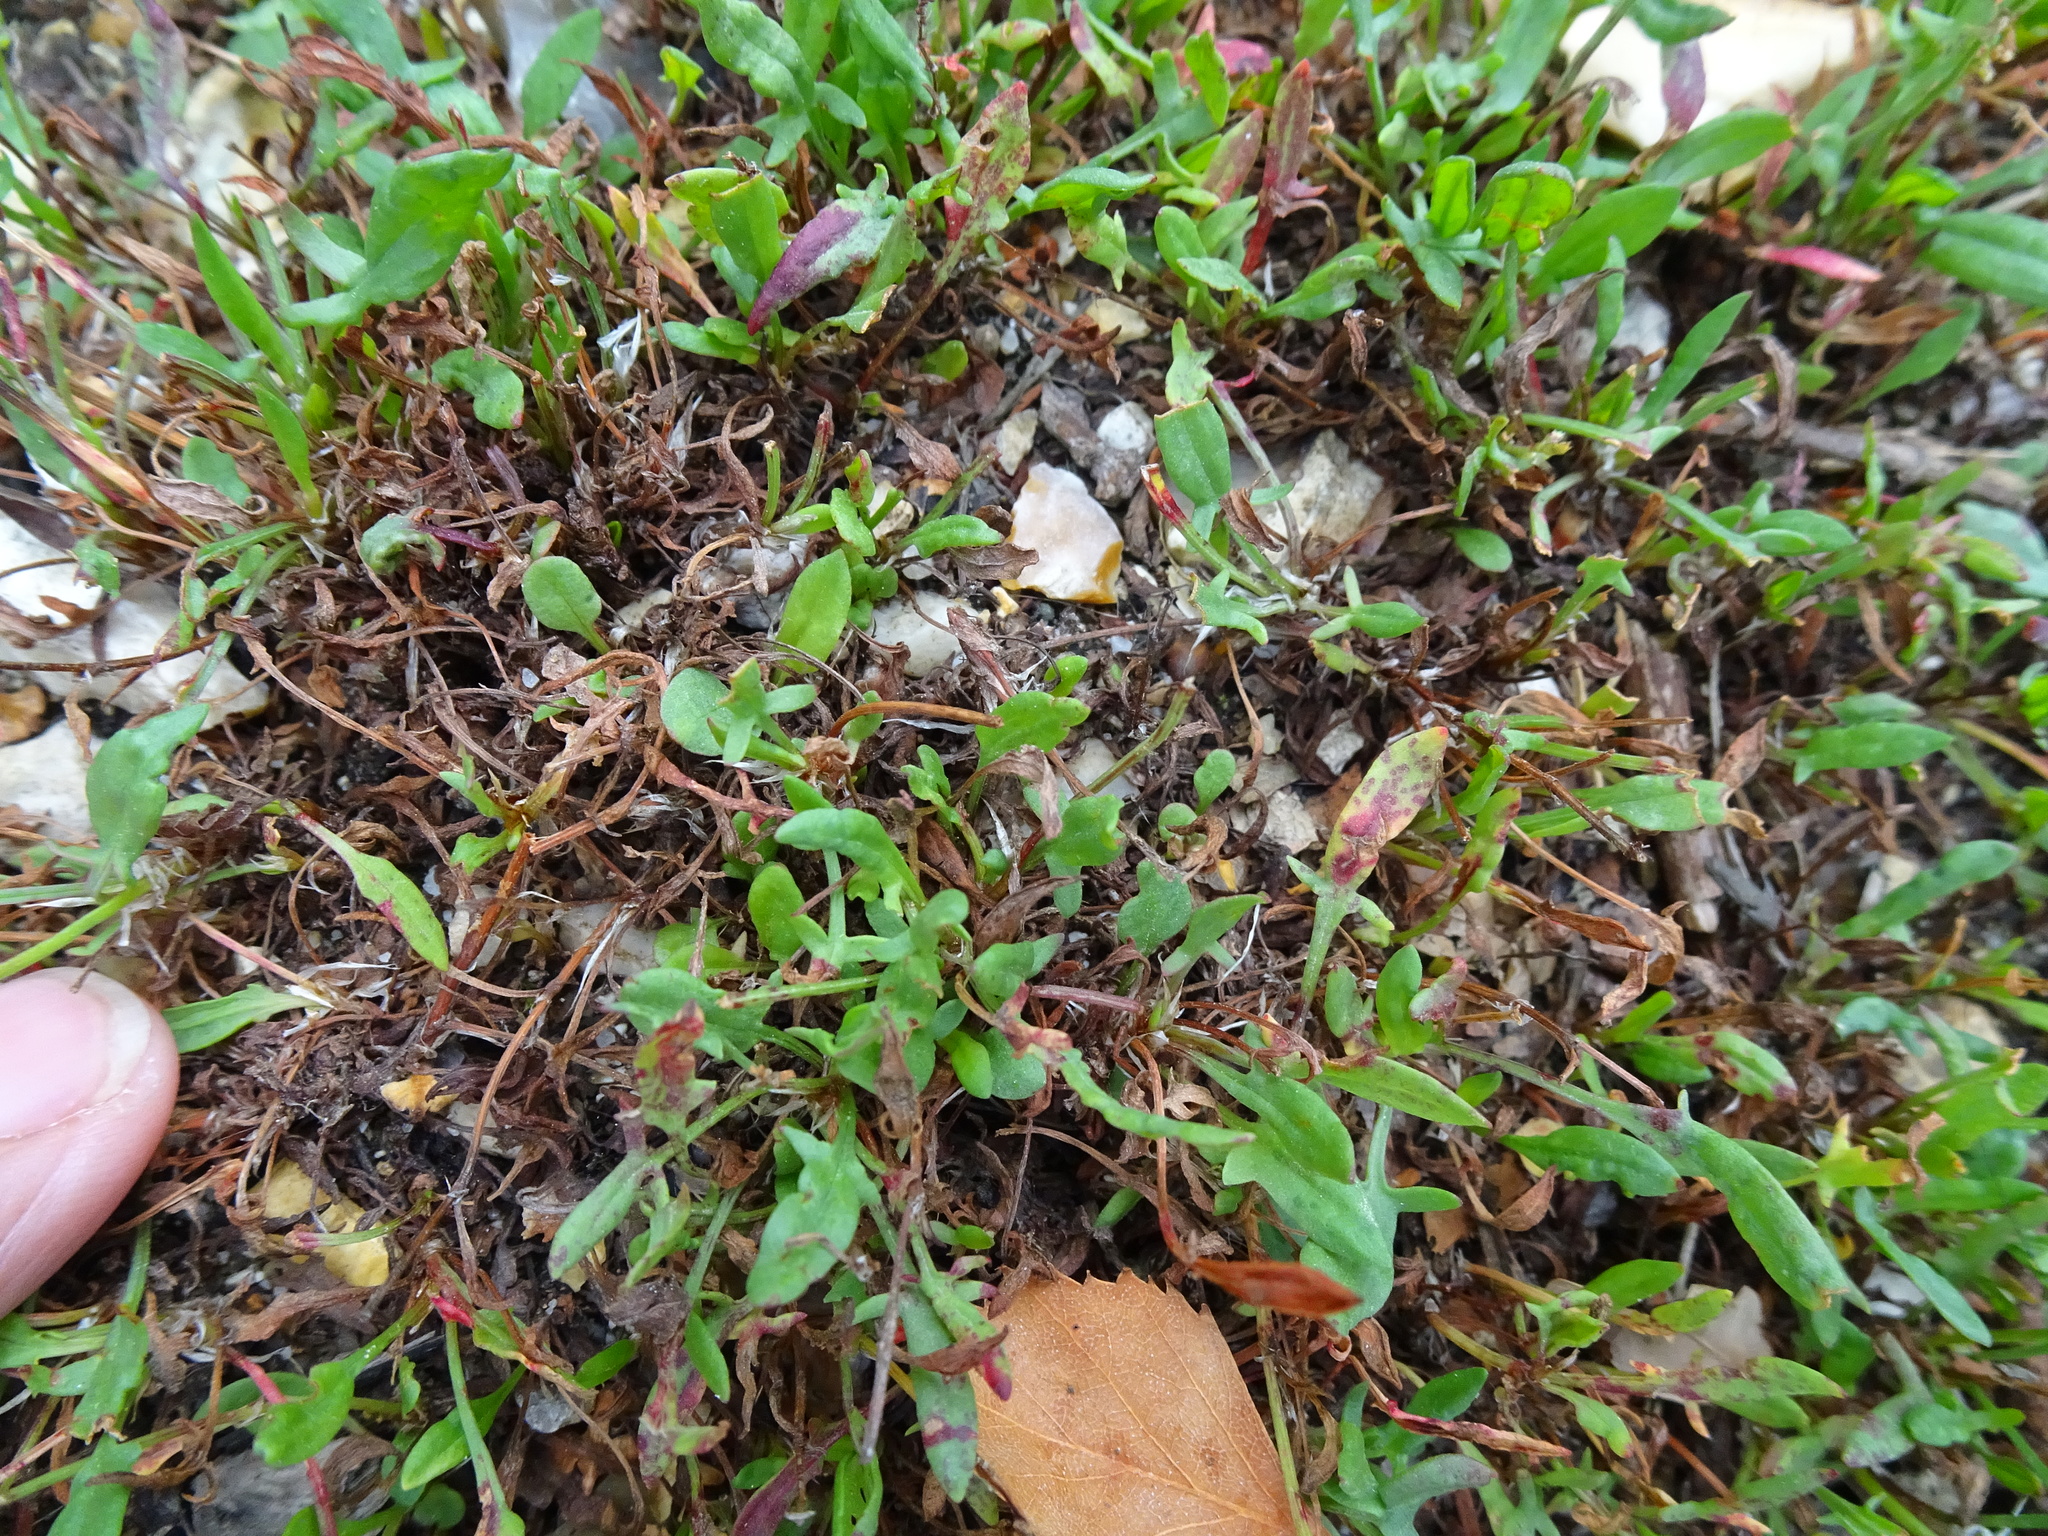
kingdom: Plantae
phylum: Tracheophyta
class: Magnoliopsida
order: Caryophyllales
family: Polygonaceae
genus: Rumex
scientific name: Rumex acetosella
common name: Common sheep sorrel
